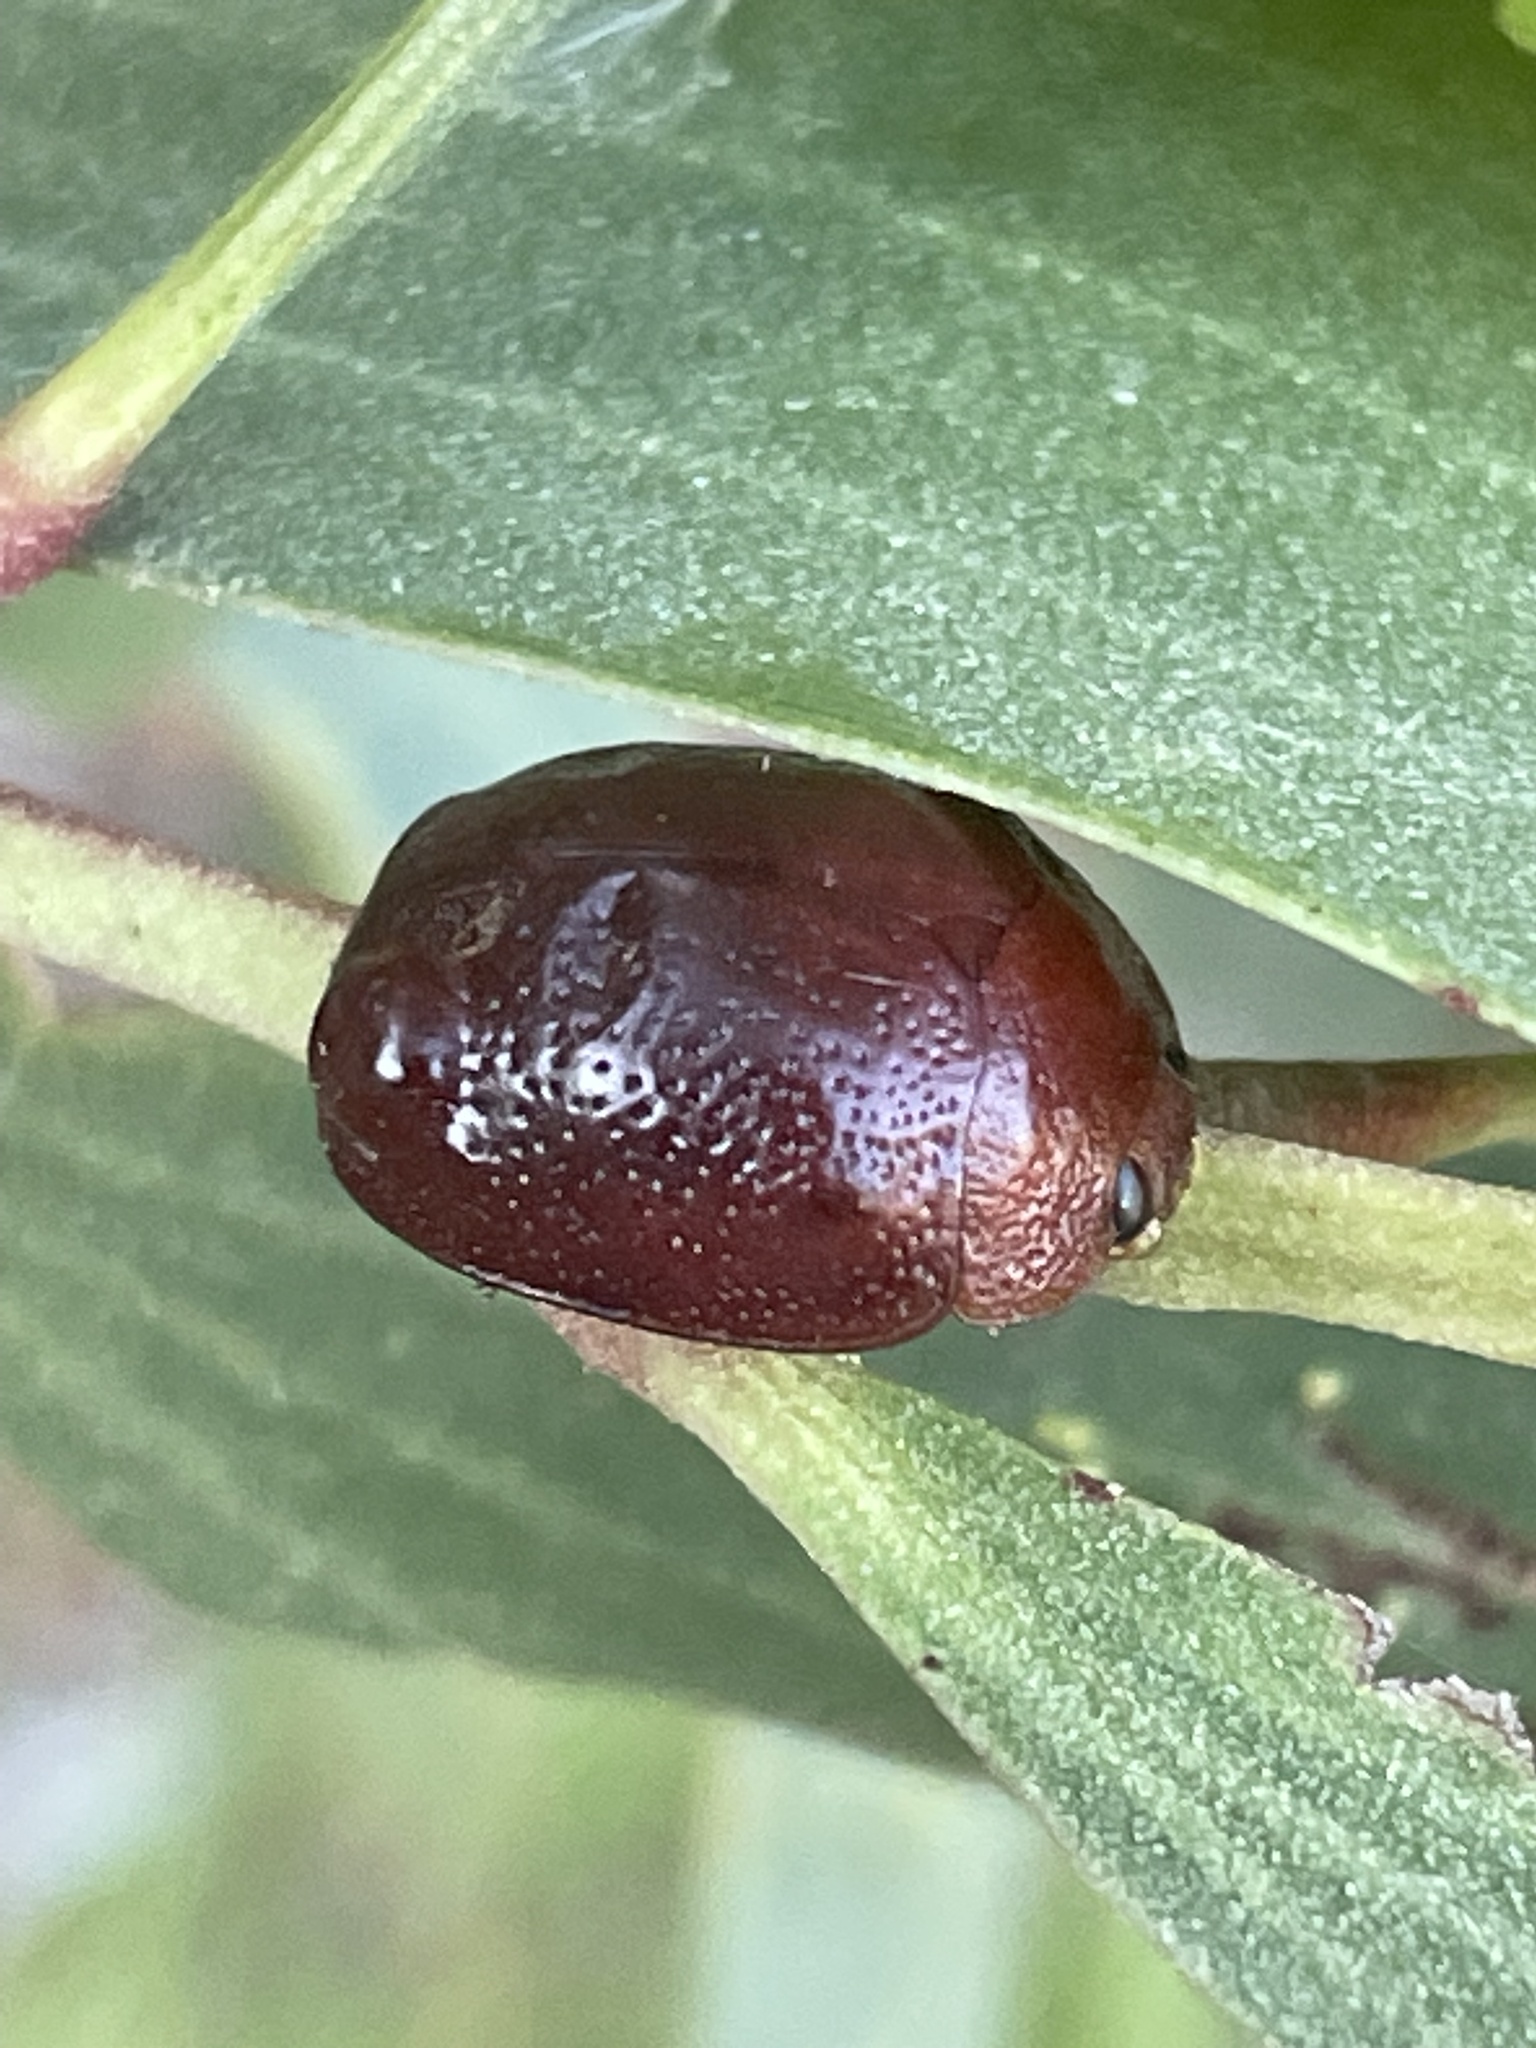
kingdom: Animalia
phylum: Arthropoda
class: Insecta
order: Coleoptera
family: Chrysomelidae
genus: Dicranosterna
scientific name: Dicranosterna
